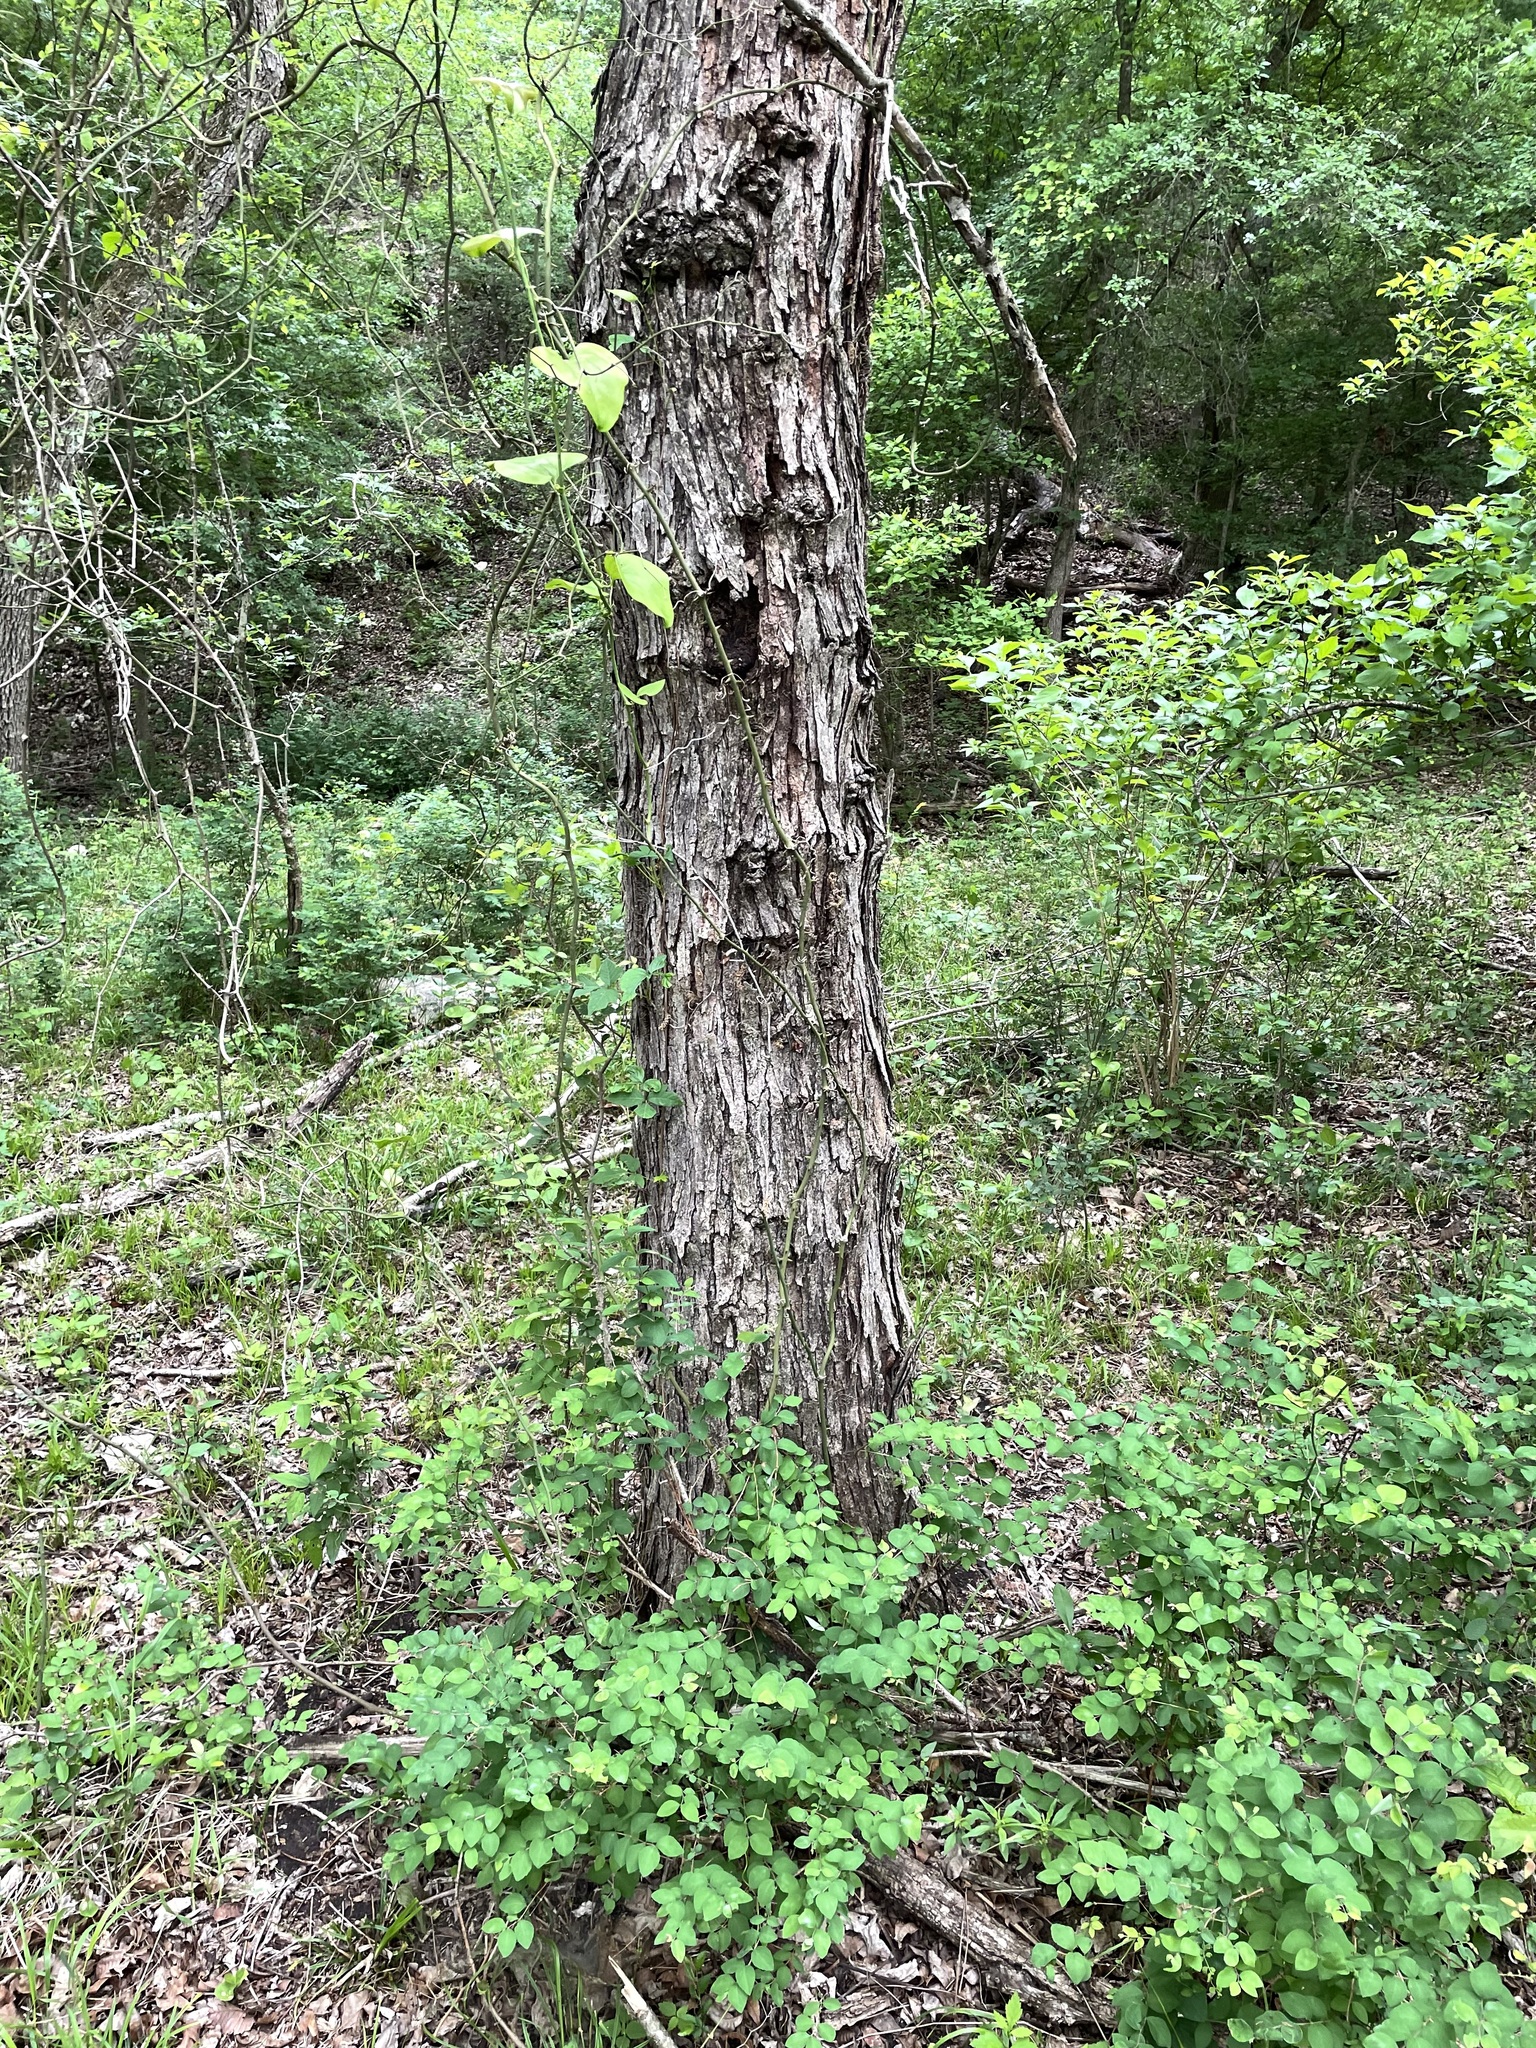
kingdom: Plantae
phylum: Tracheophyta
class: Magnoliopsida
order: Rosales
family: Moraceae
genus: Morus
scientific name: Morus rubra
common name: Red mulberry
